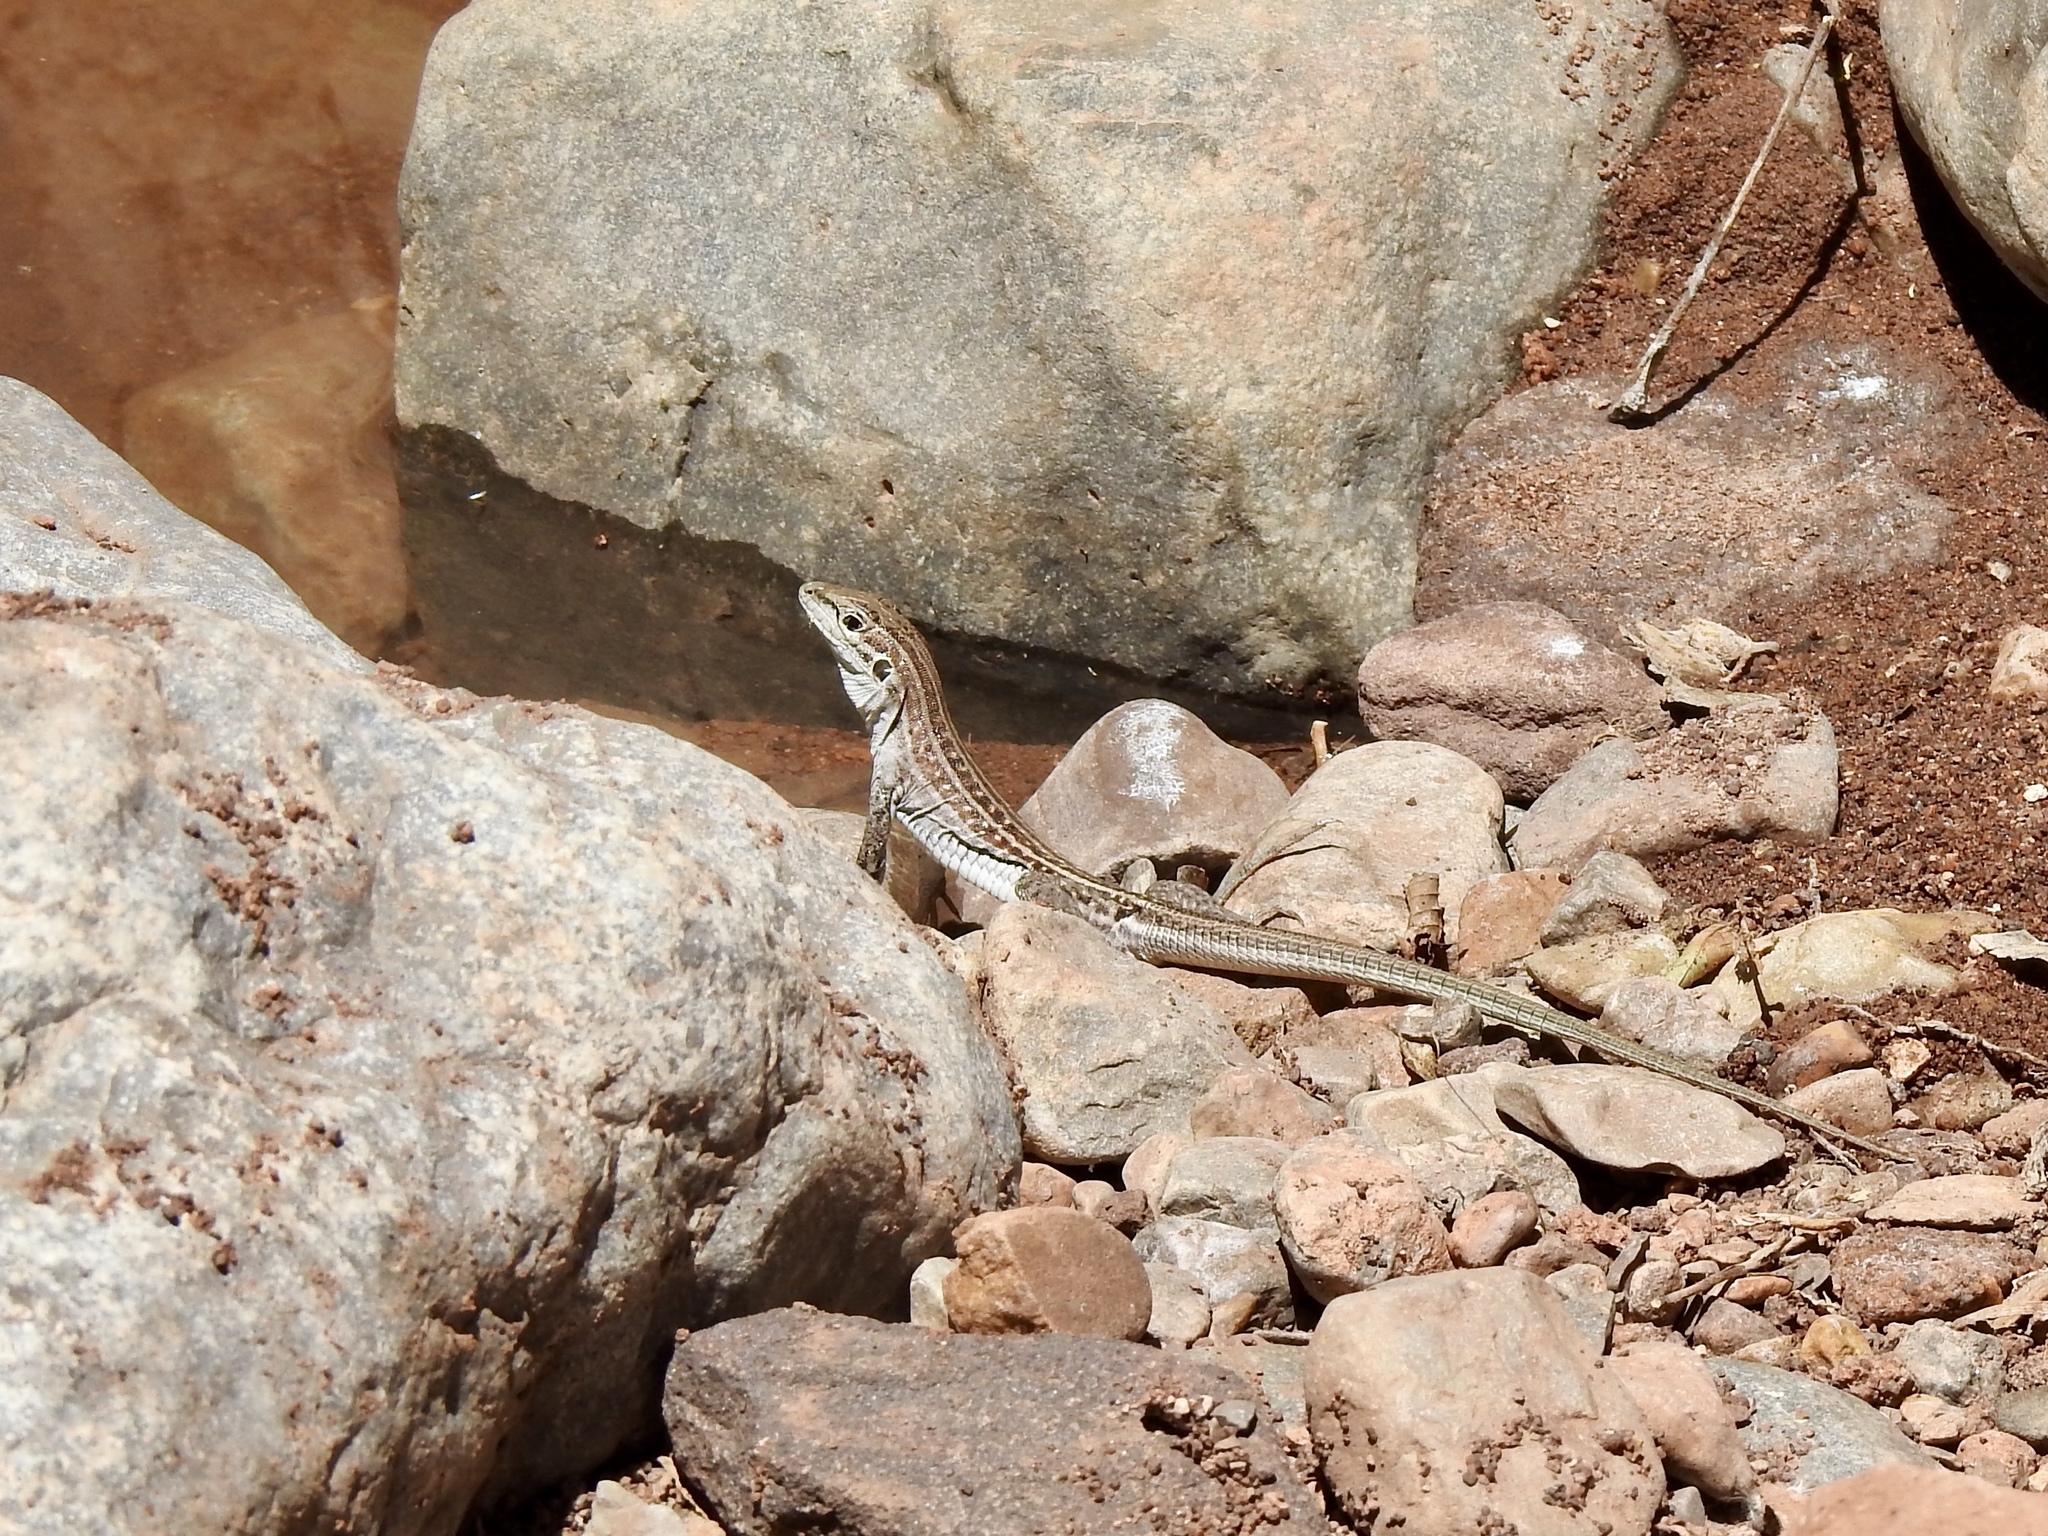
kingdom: Animalia
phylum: Chordata
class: Squamata
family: Teiidae
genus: Aspidoscelis
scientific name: Aspidoscelis exsanguis
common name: Chihuahuan spotted whiptail
